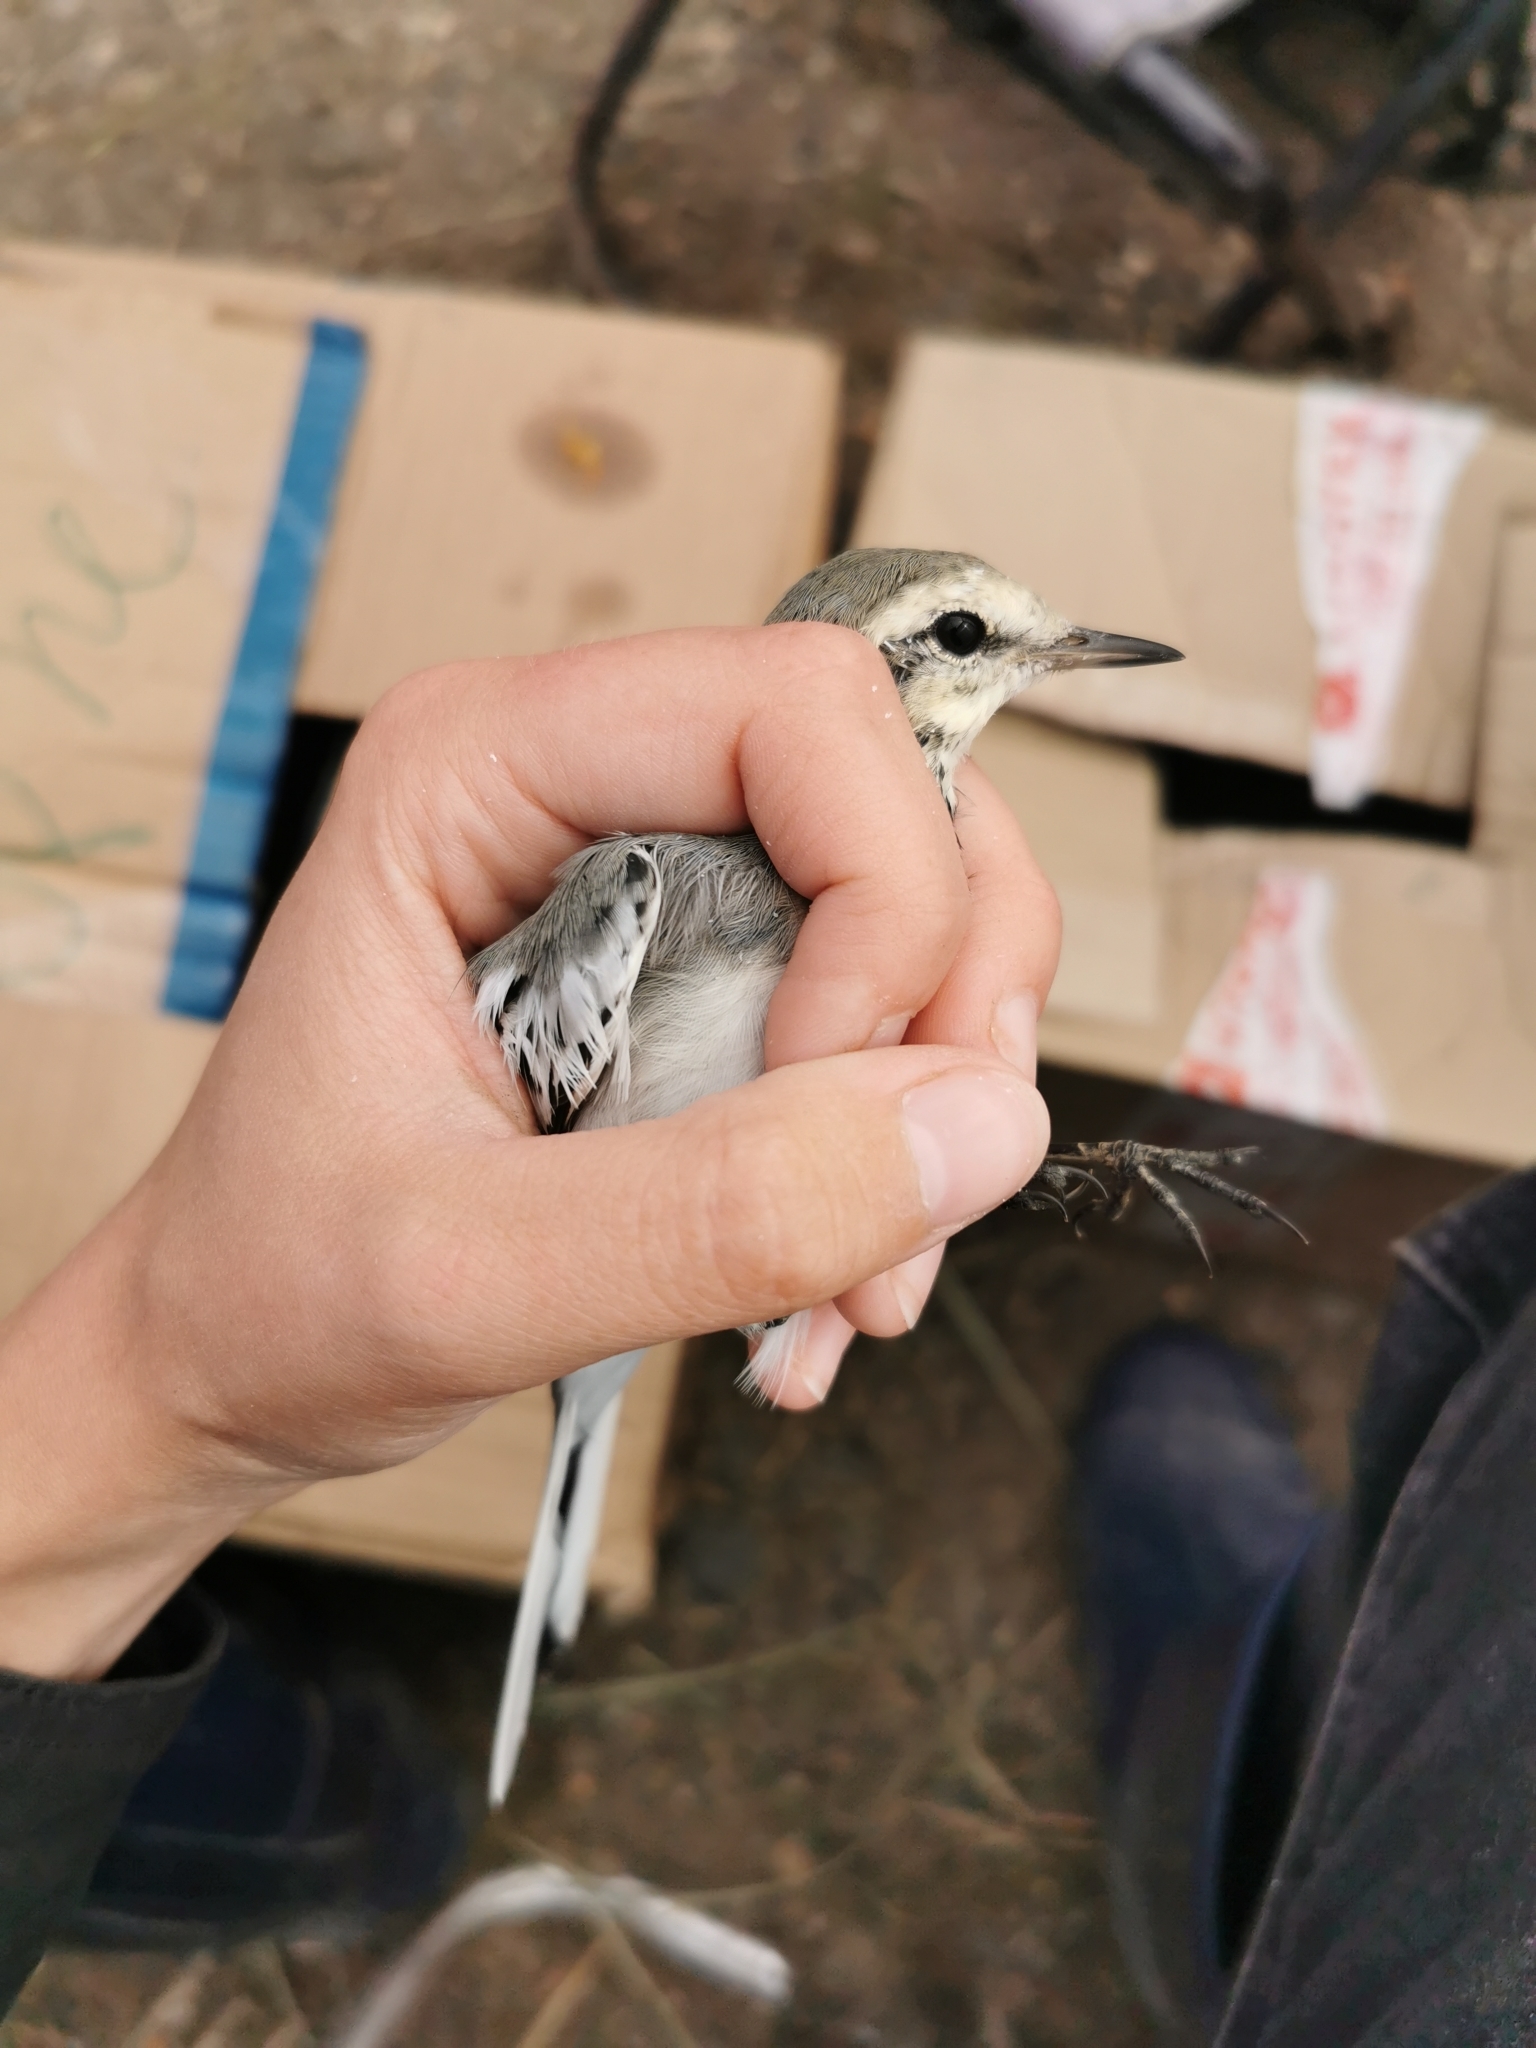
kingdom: Animalia
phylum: Chordata
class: Aves
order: Passeriformes
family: Motacillidae
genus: Motacilla
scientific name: Motacilla alba
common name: White wagtail
